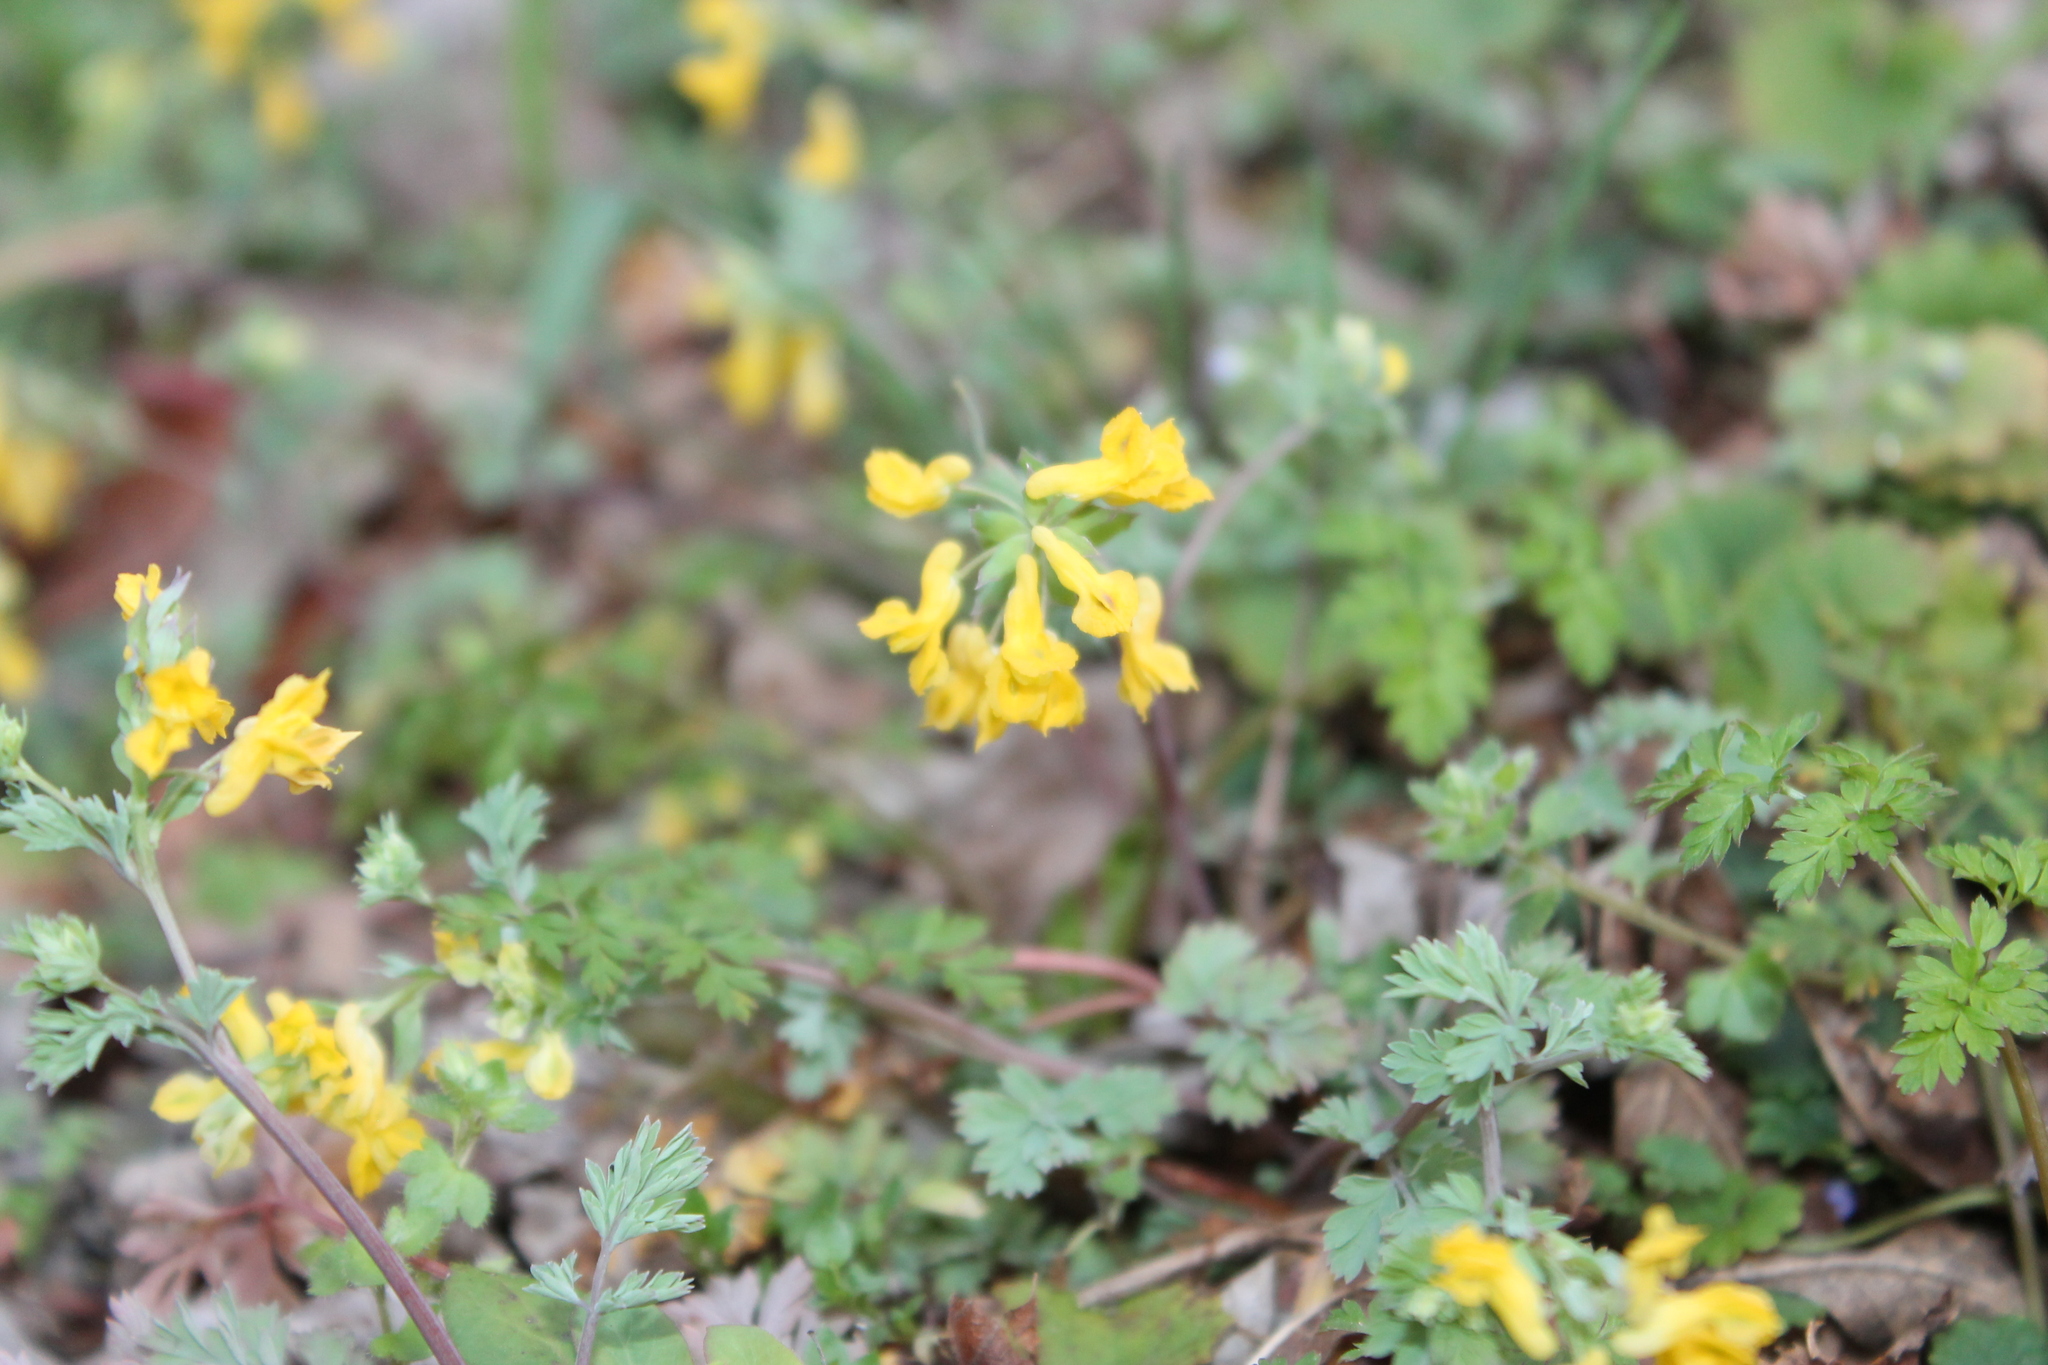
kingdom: Plantae
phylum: Tracheophyta
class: Magnoliopsida
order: Ranunculales
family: Papaveraceae
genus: Corydalis
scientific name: Corydalis flavula
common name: Yellow corydalis
